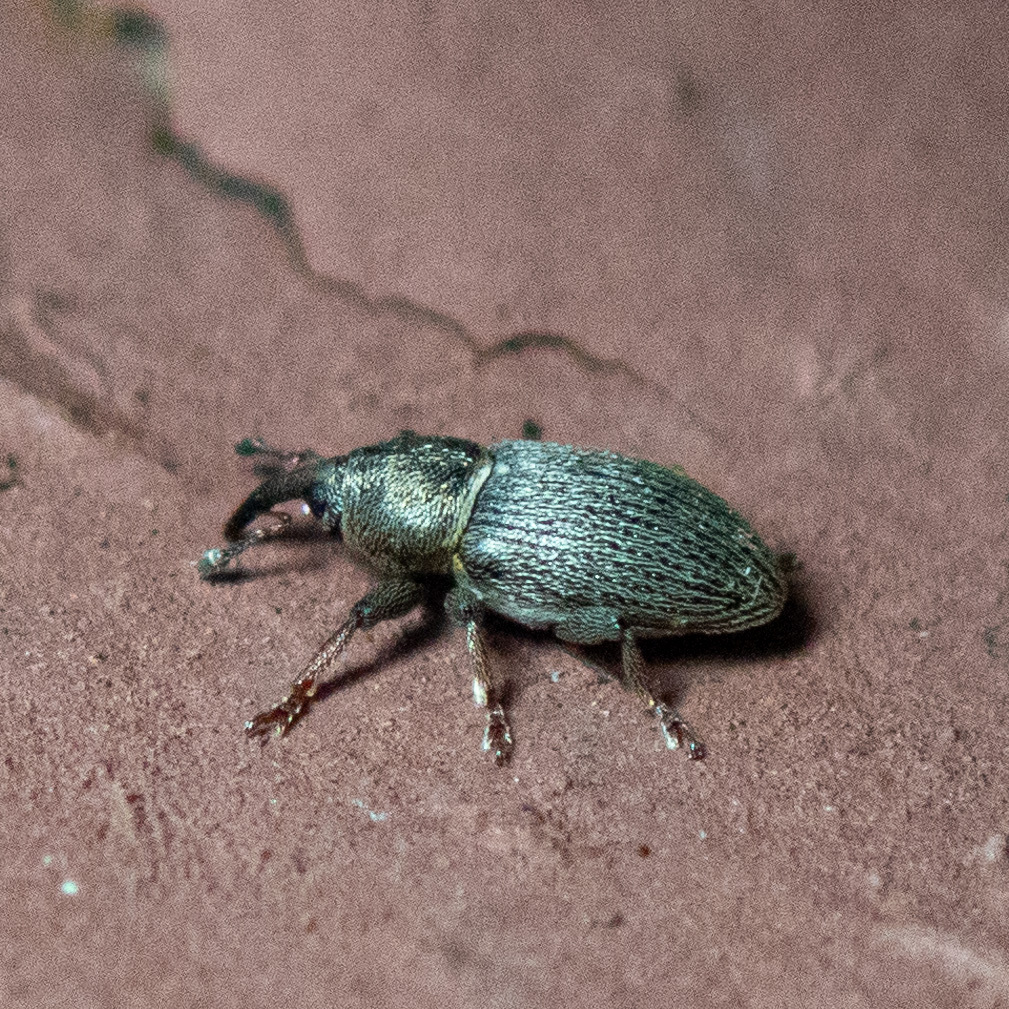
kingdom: Animalia
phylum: Arthropoda
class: Insecta
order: Coleoptera
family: Curculionidae
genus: Tychius
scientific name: Tychius picirostris
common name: Clover seed weevil
